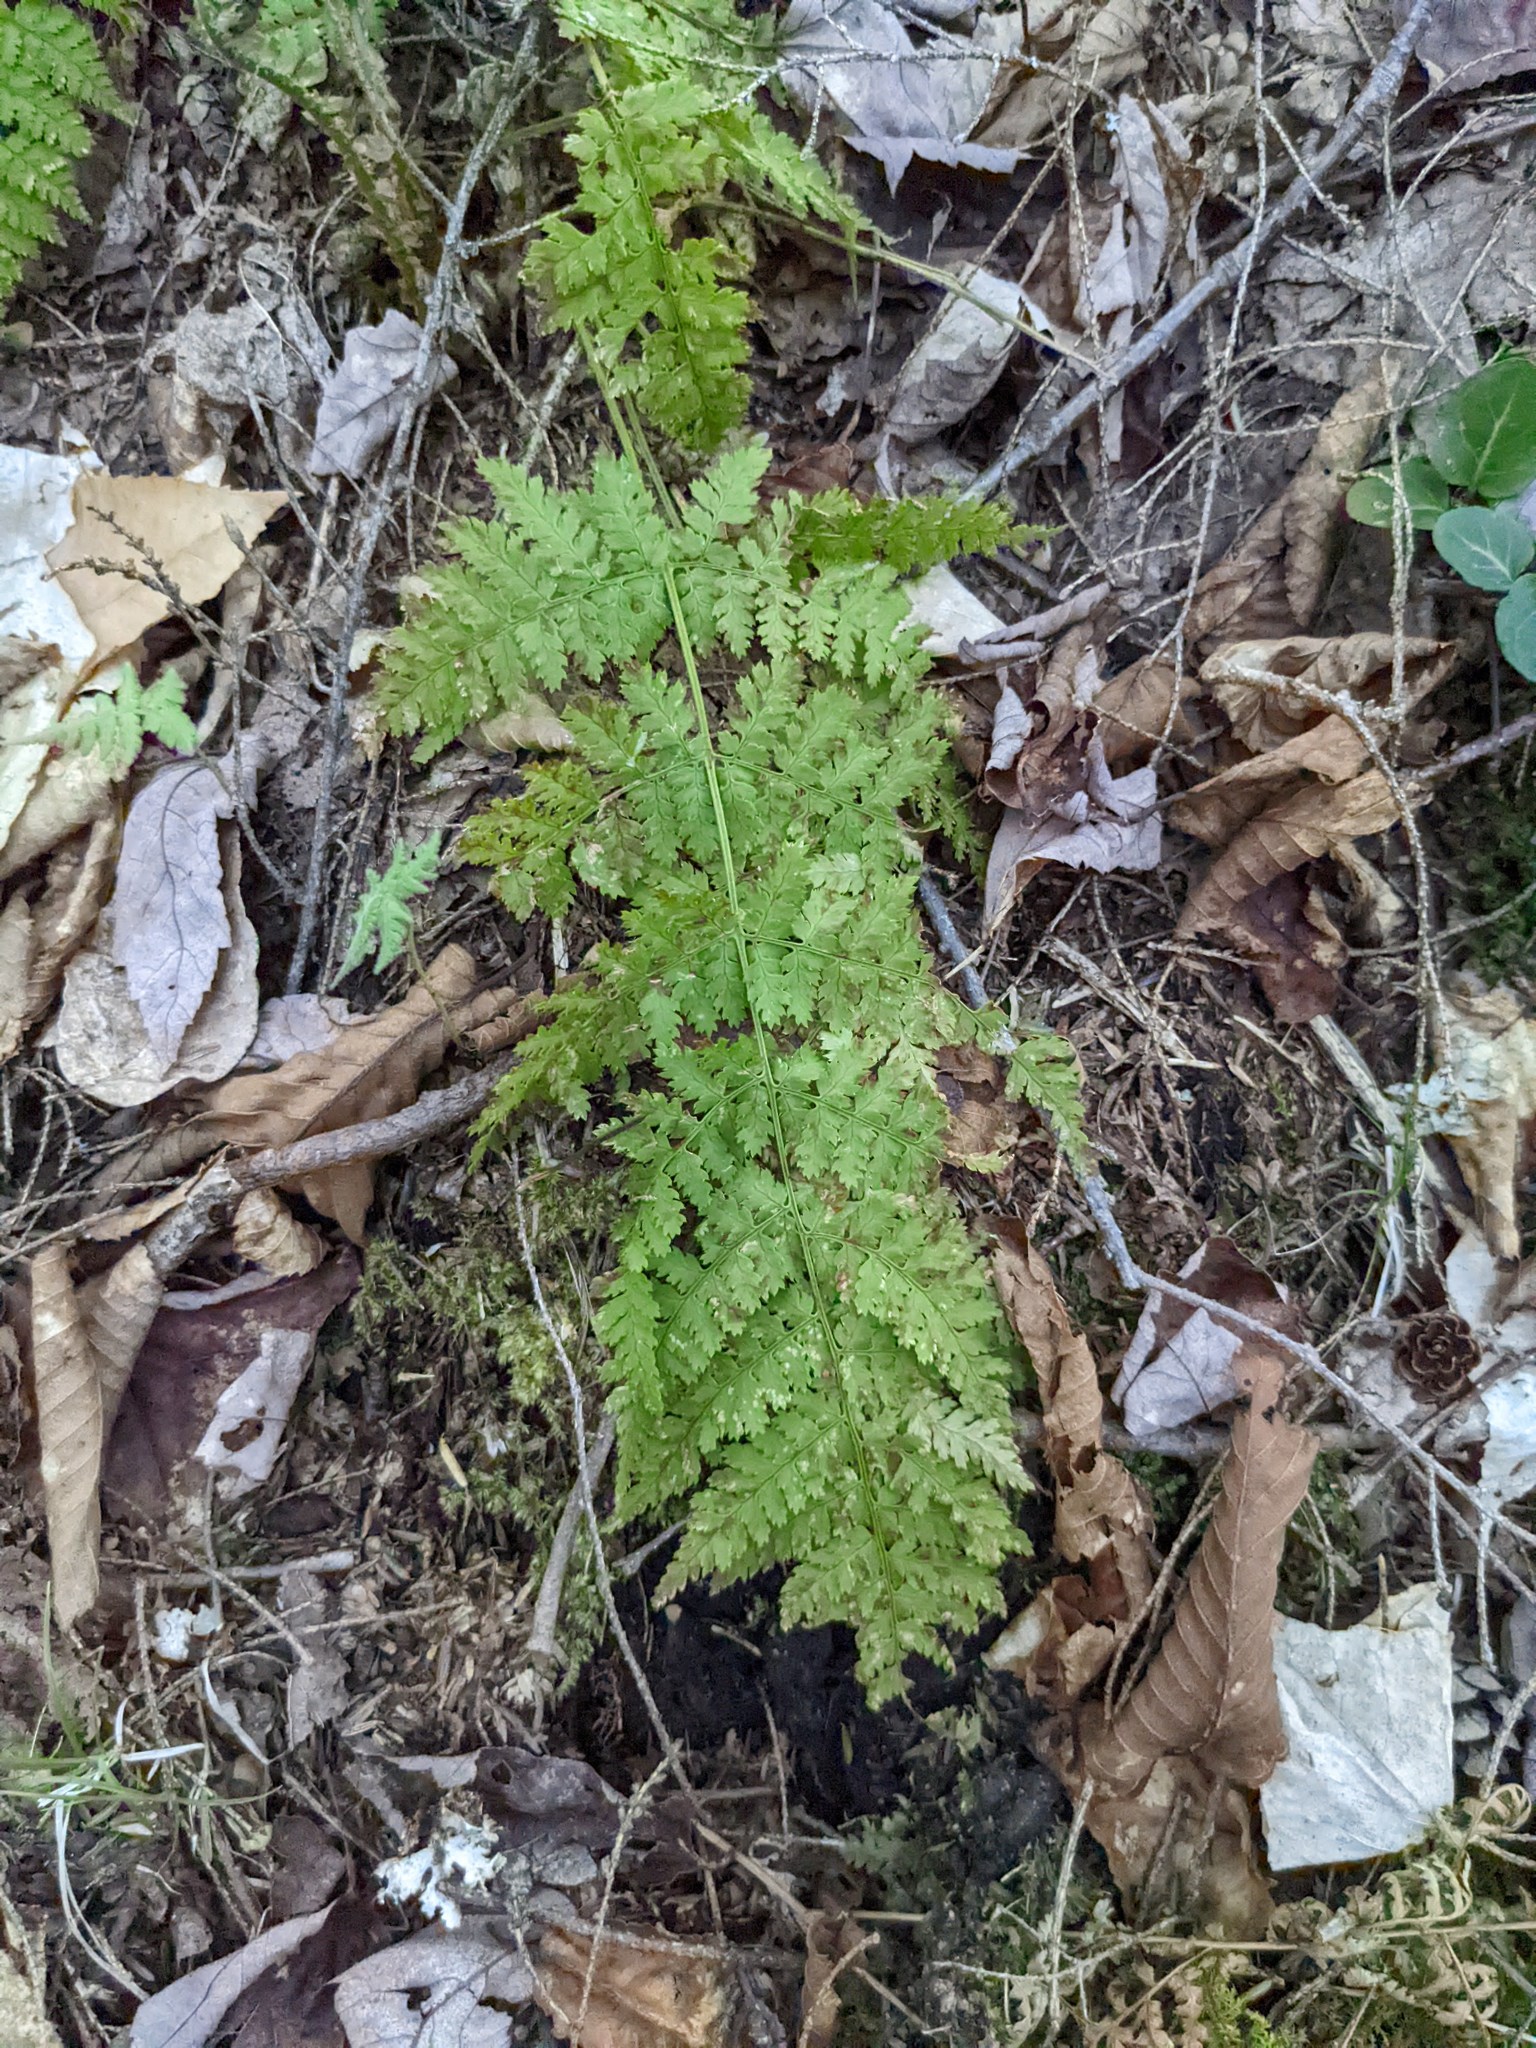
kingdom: Plantae
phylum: Tracheophyta
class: Polypodiopsida
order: Polypodiales
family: Dryopteridaceae
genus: Dryopteris
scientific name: Dryopteris intermedia
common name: Evergreen wood fern
